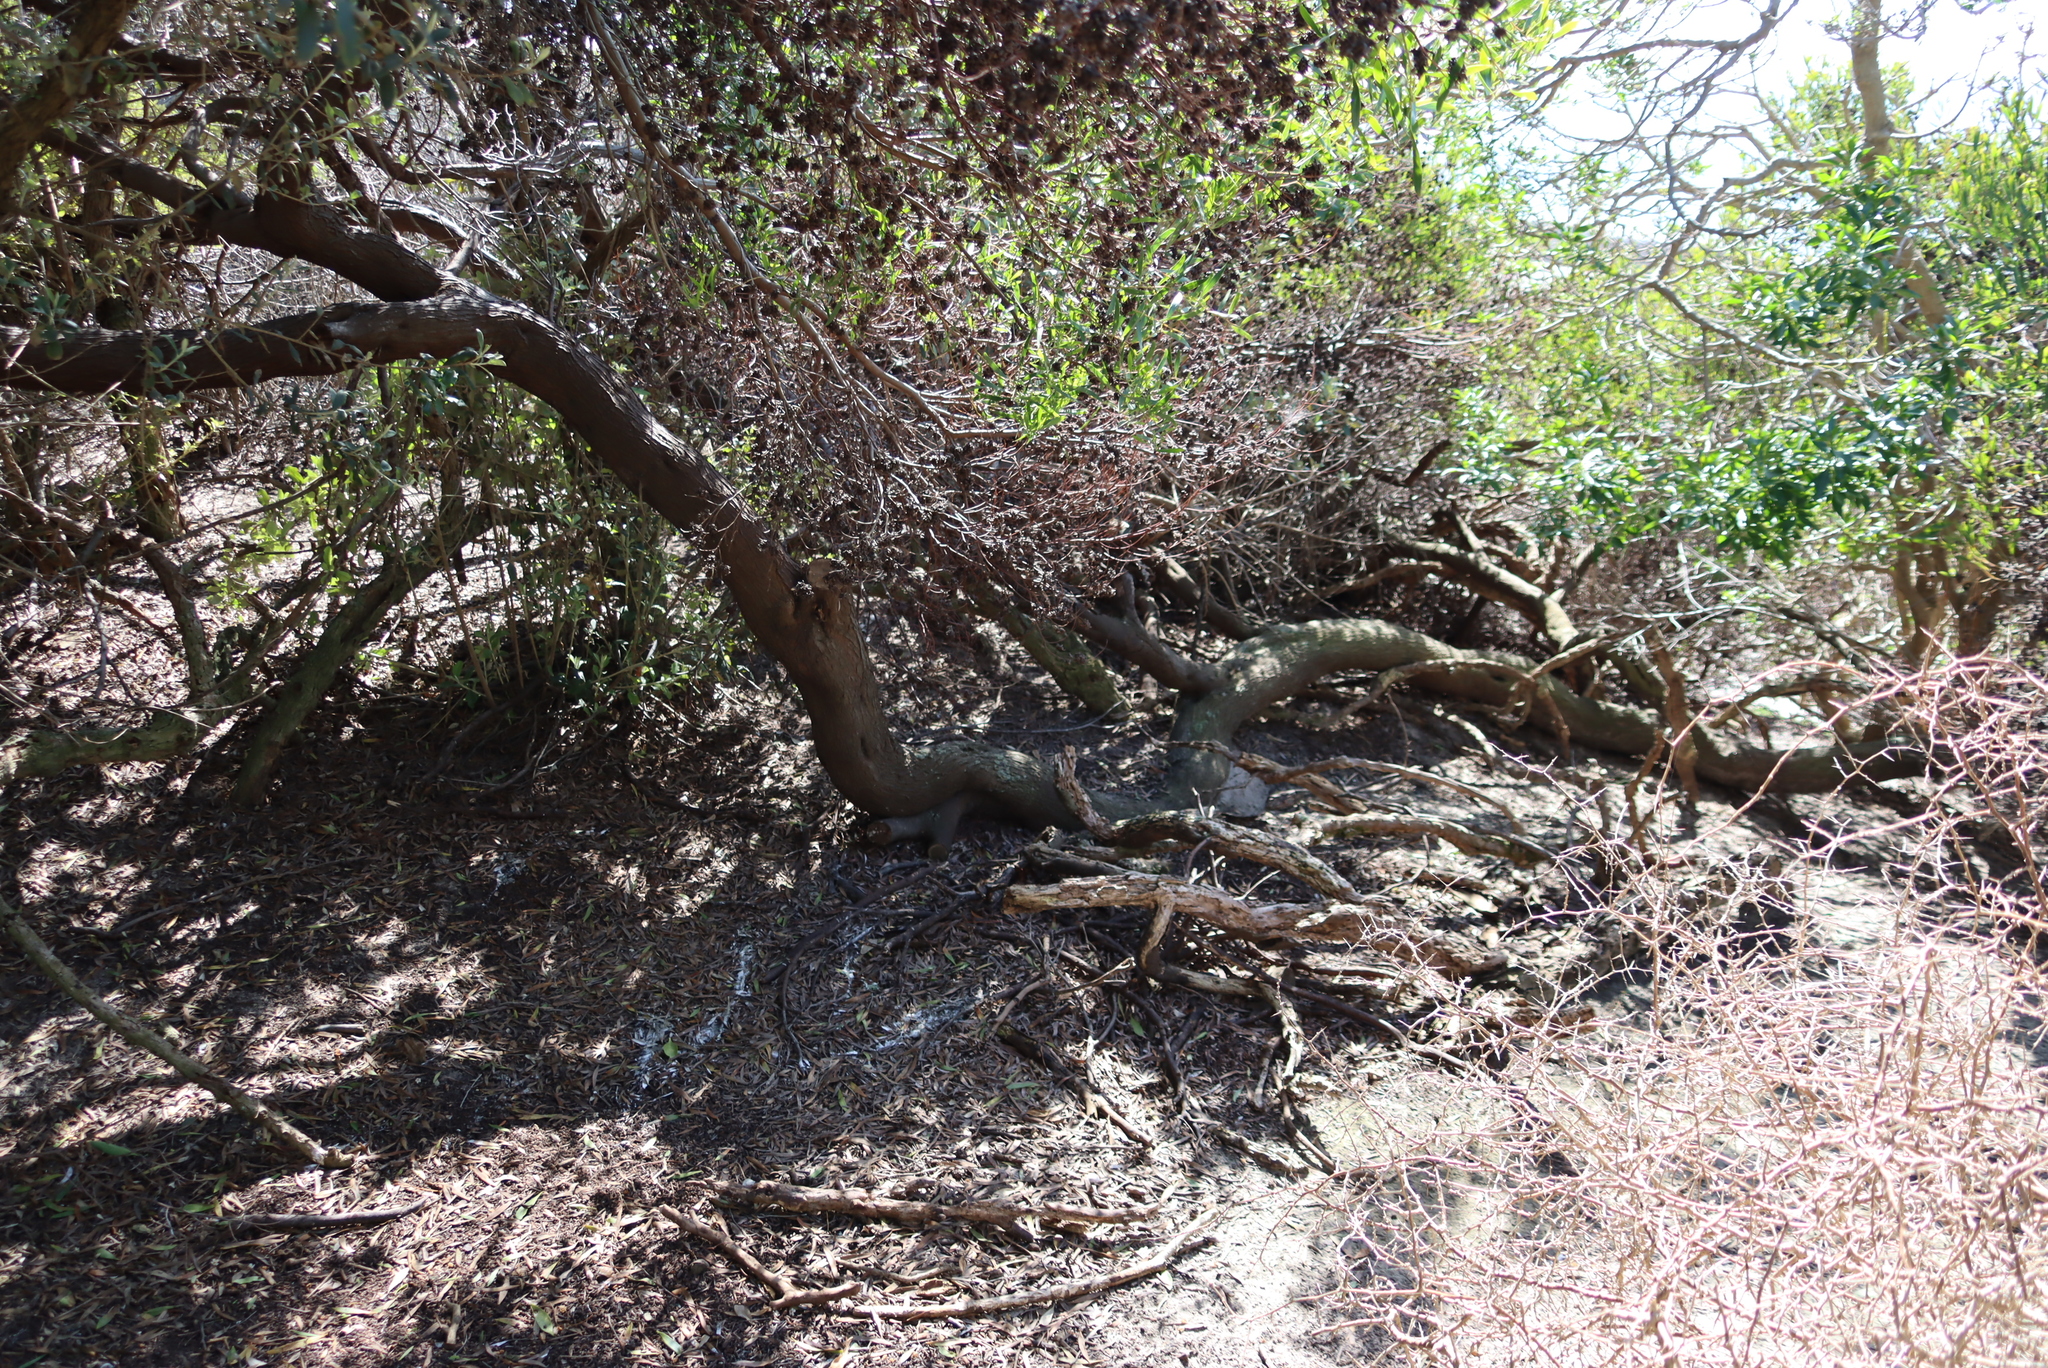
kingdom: Plantae
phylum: Tracheophyta
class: Magnoliopsida
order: Fabales
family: Fabaceae
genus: Acacia
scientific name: Acacia cyclops
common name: Coastal wattle
